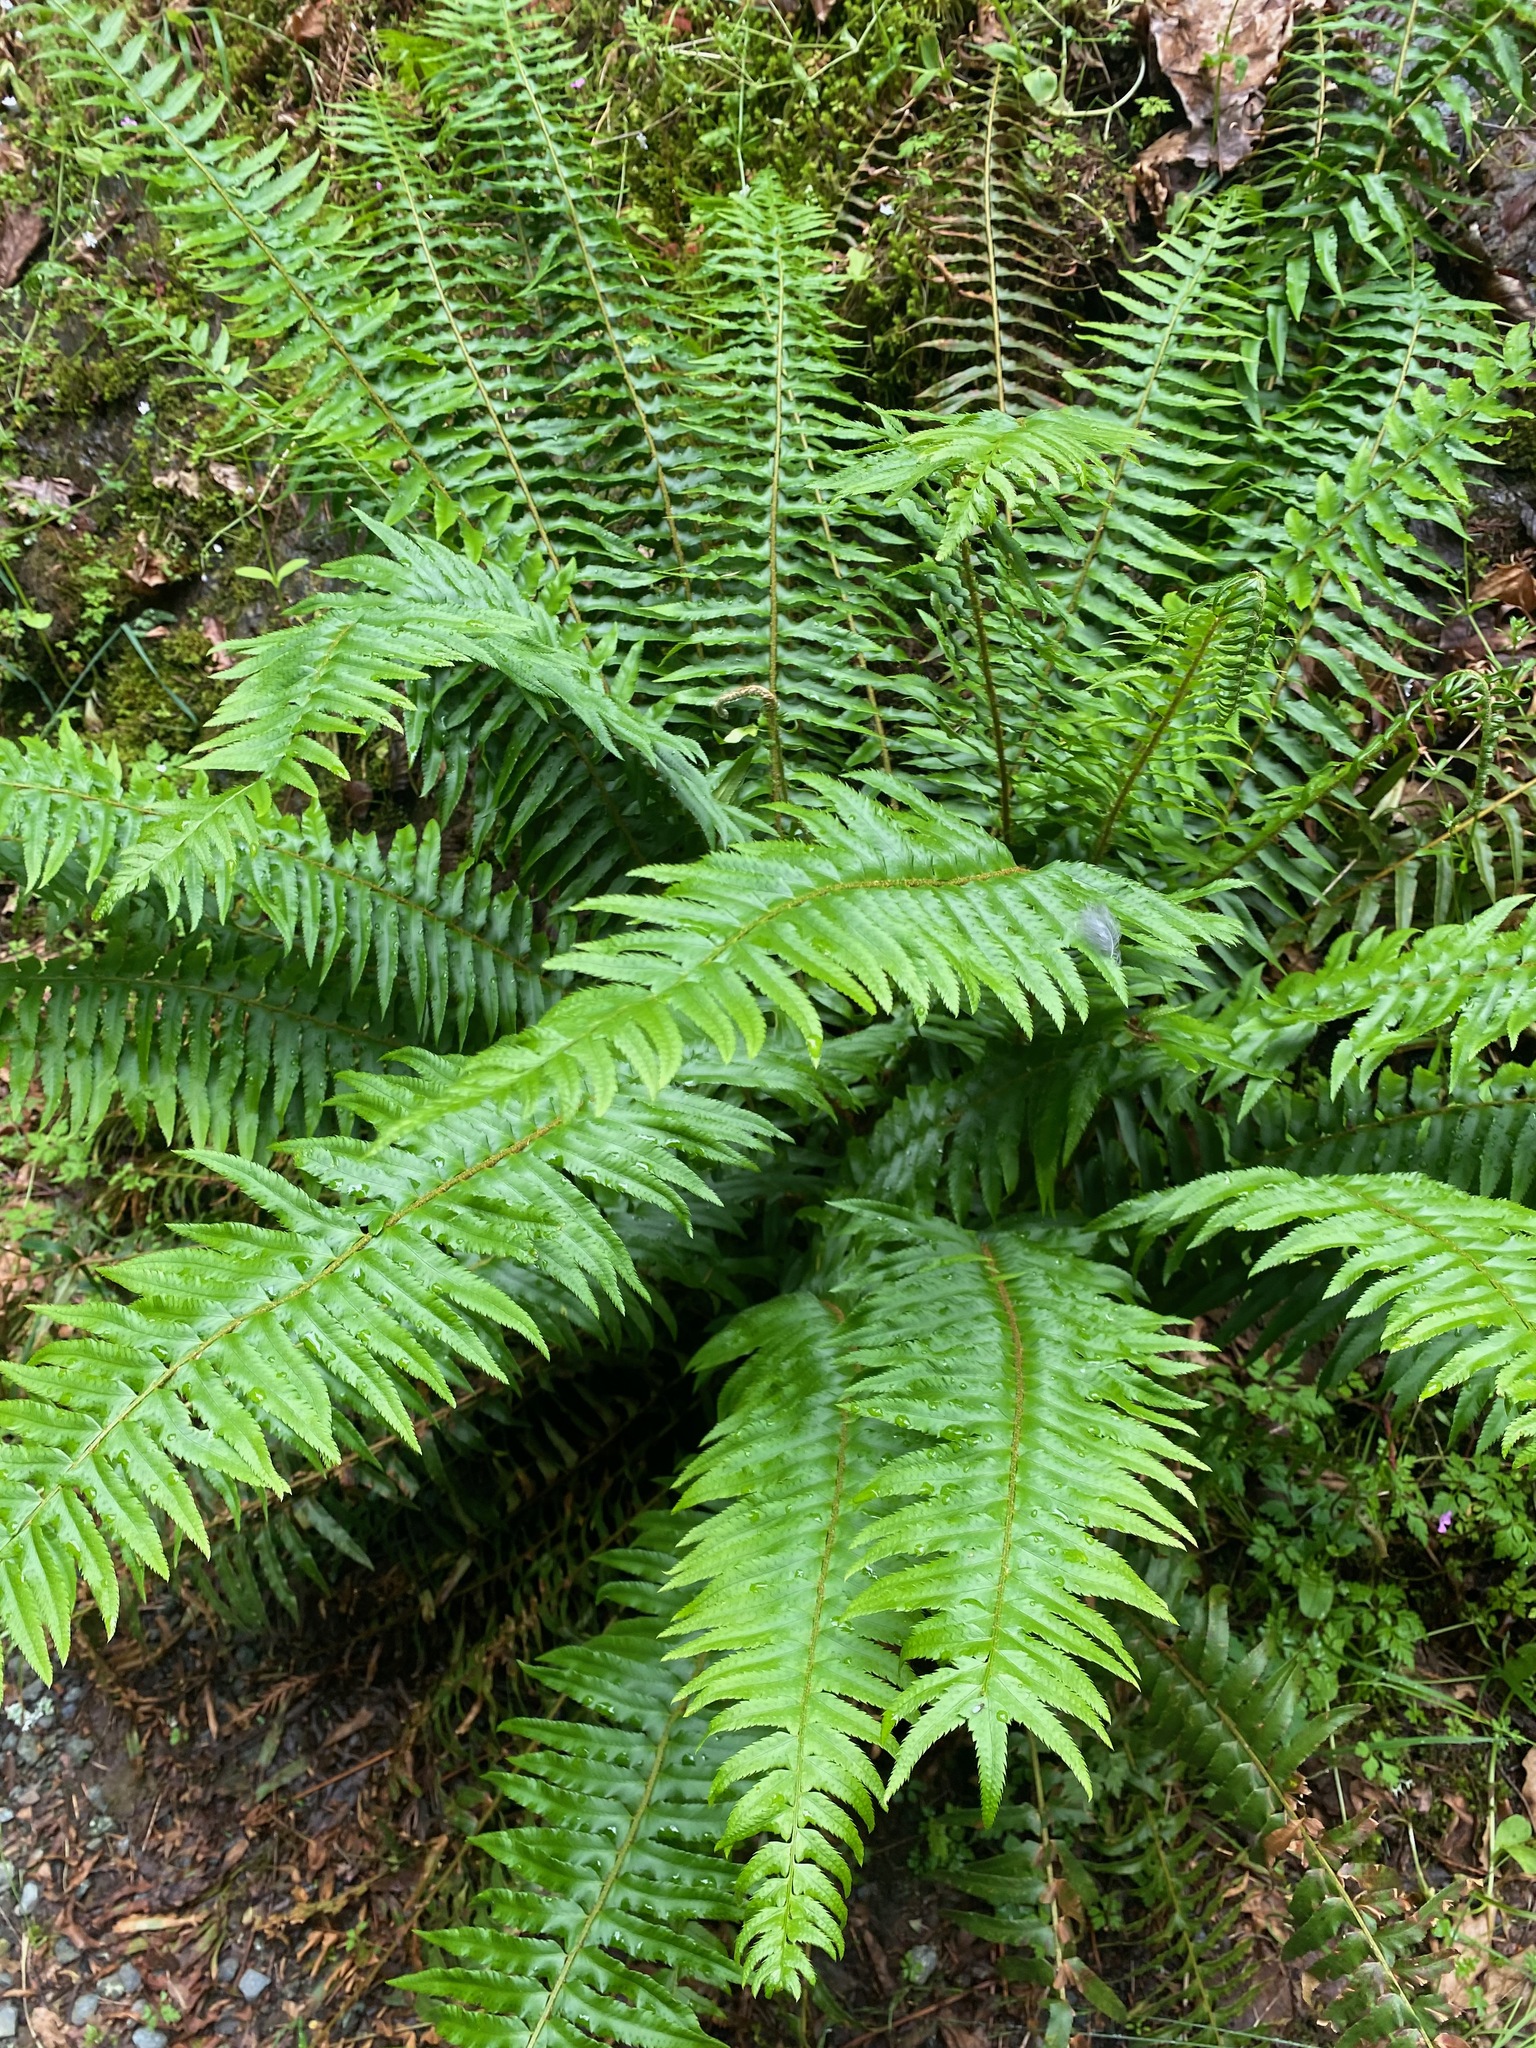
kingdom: Plantae
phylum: Tracheophyta
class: Polypodiopsida
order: Polypodiales
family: Dryopteridaceae
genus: Polystichum
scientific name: Polystichum munitum
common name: Western sword-fern
